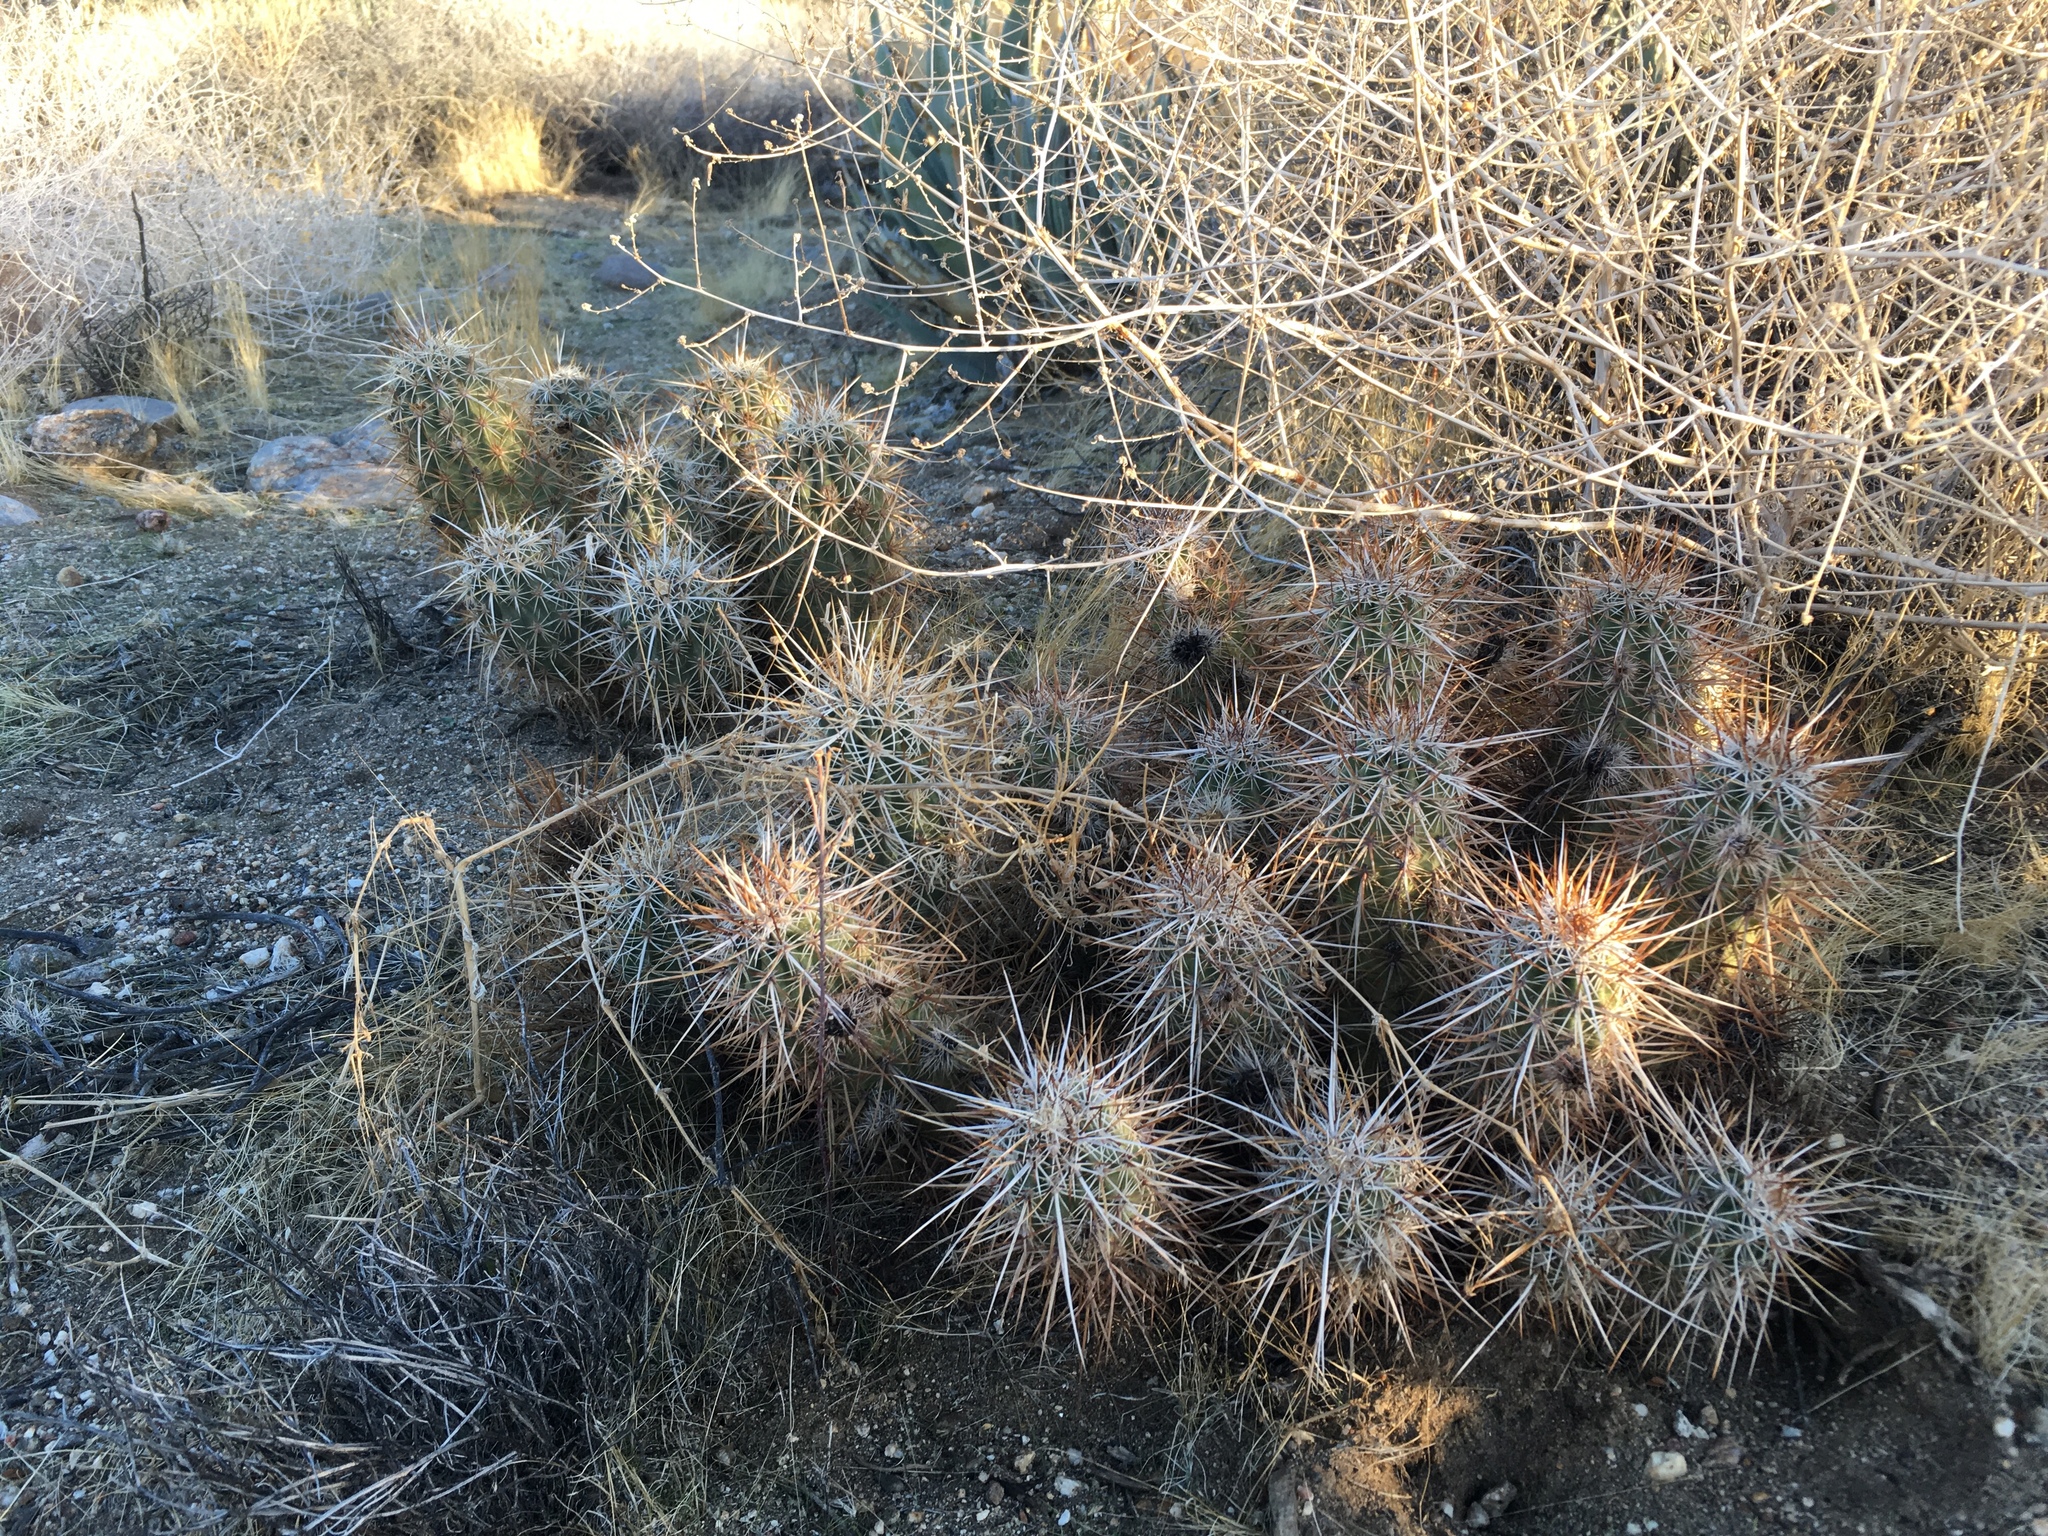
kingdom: Plantae
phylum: Tracheophyta
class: Magnoliopsida
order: Caryophyllales
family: Cactaceae
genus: Echinocereus
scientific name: Echinocereus engelmannii
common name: Engelmann's hedgehog cactus
